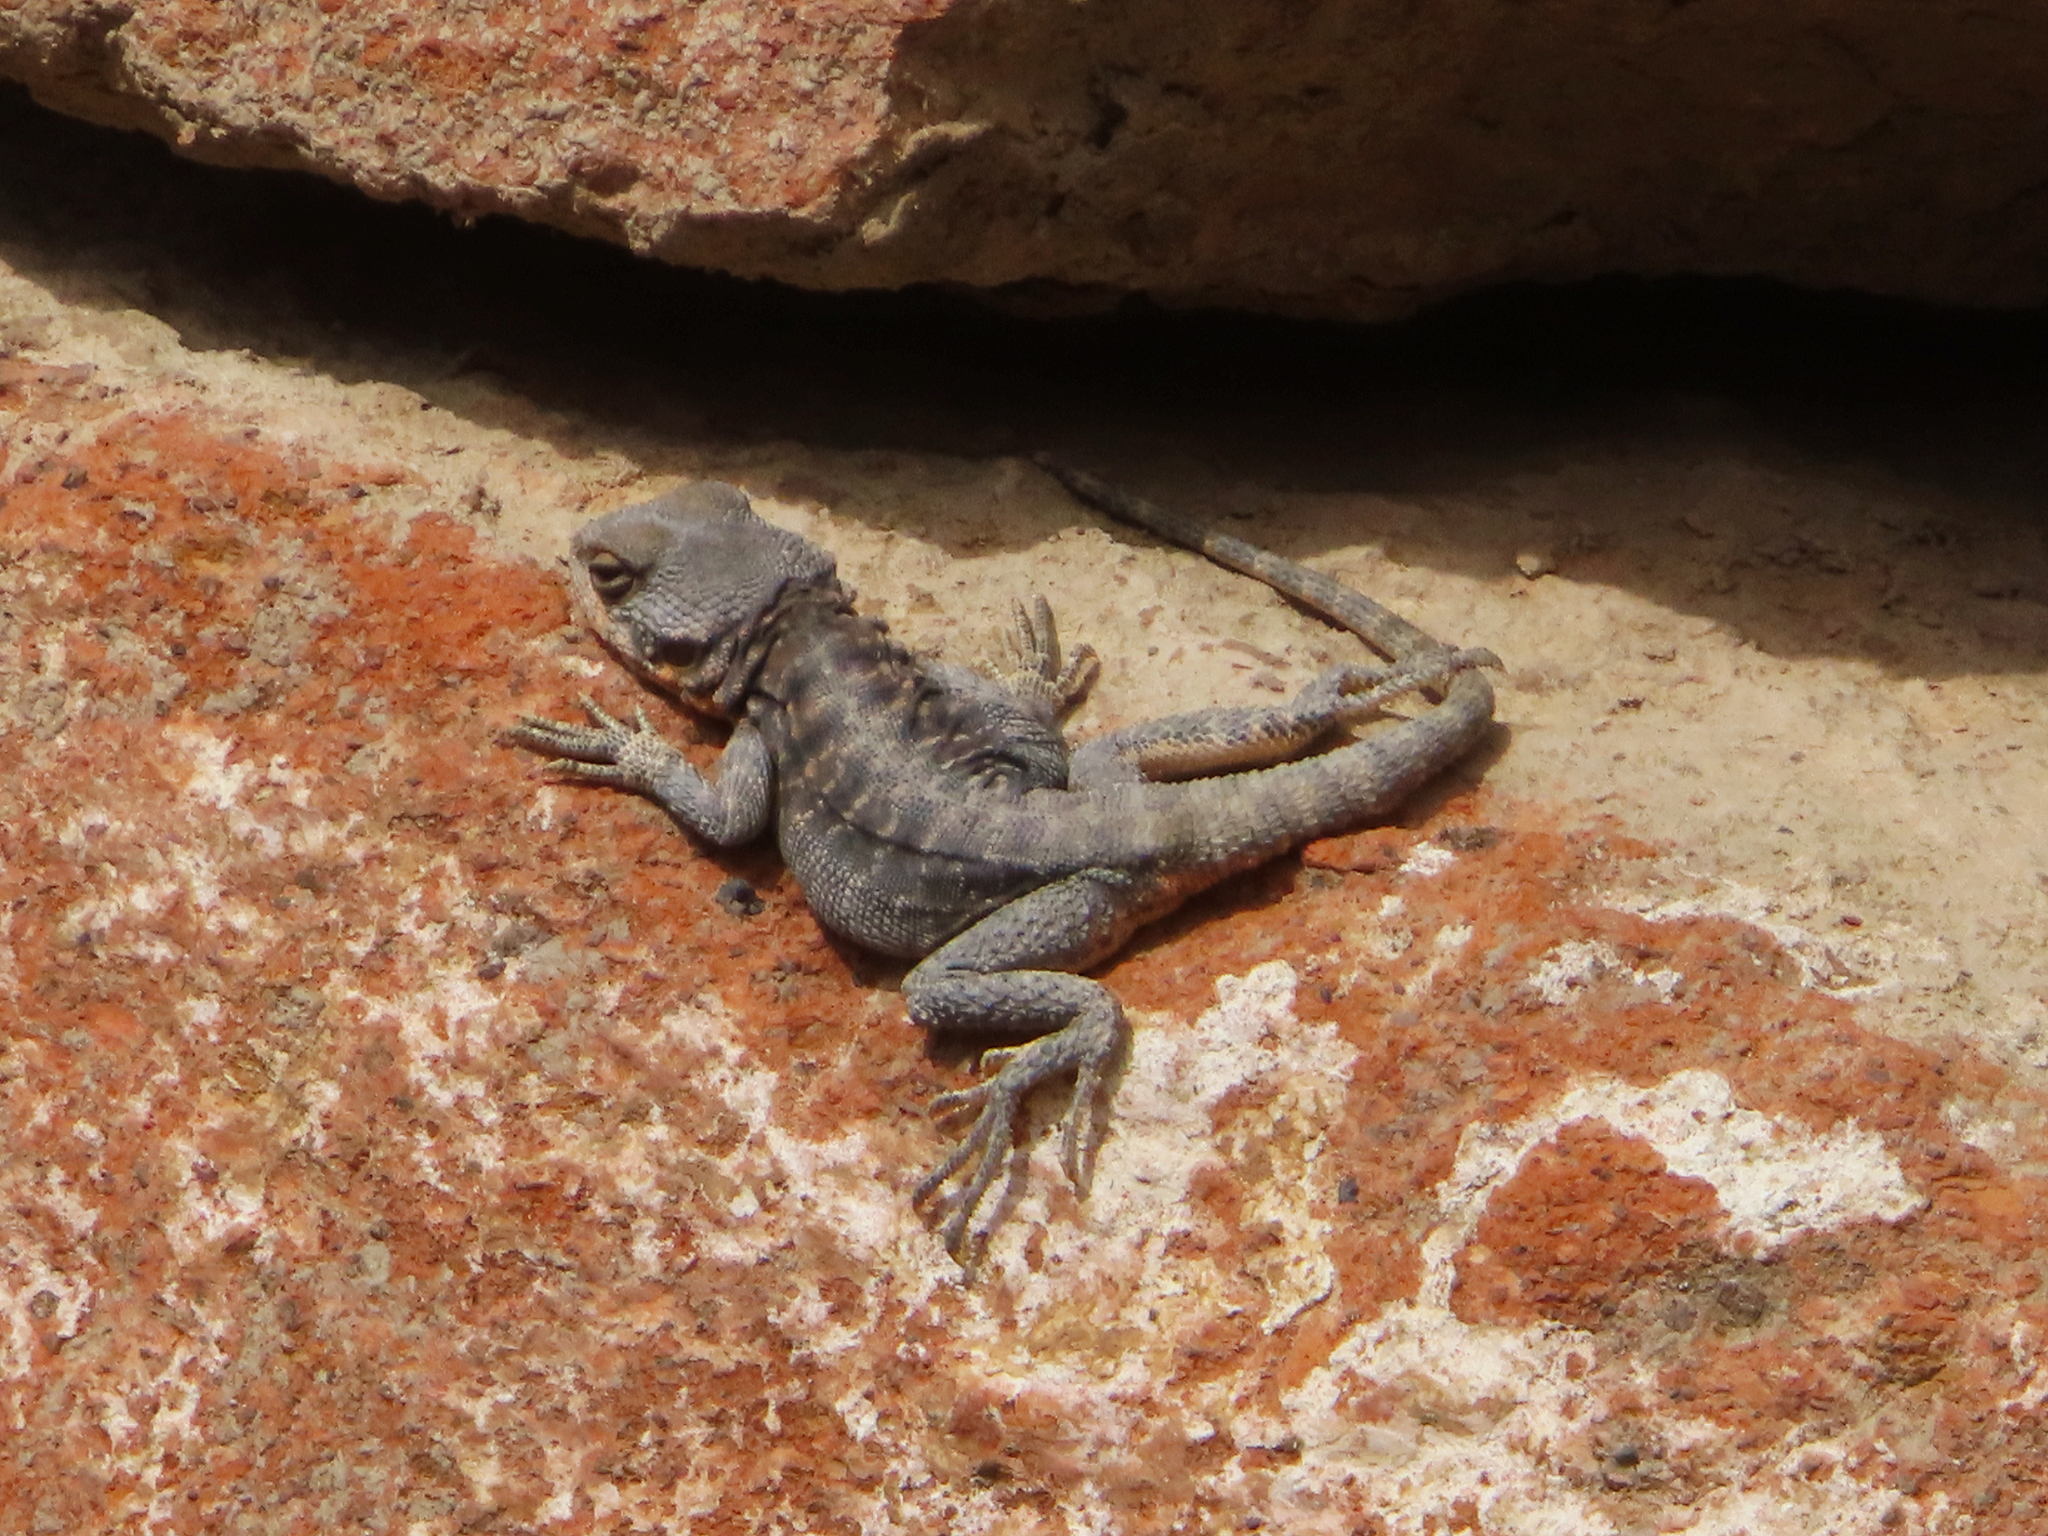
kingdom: Animalia
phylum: Chordata
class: Squamata
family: Agamidae
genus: Paralaudakia
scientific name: Paralaudakia caucasia
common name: Caucasian agama
